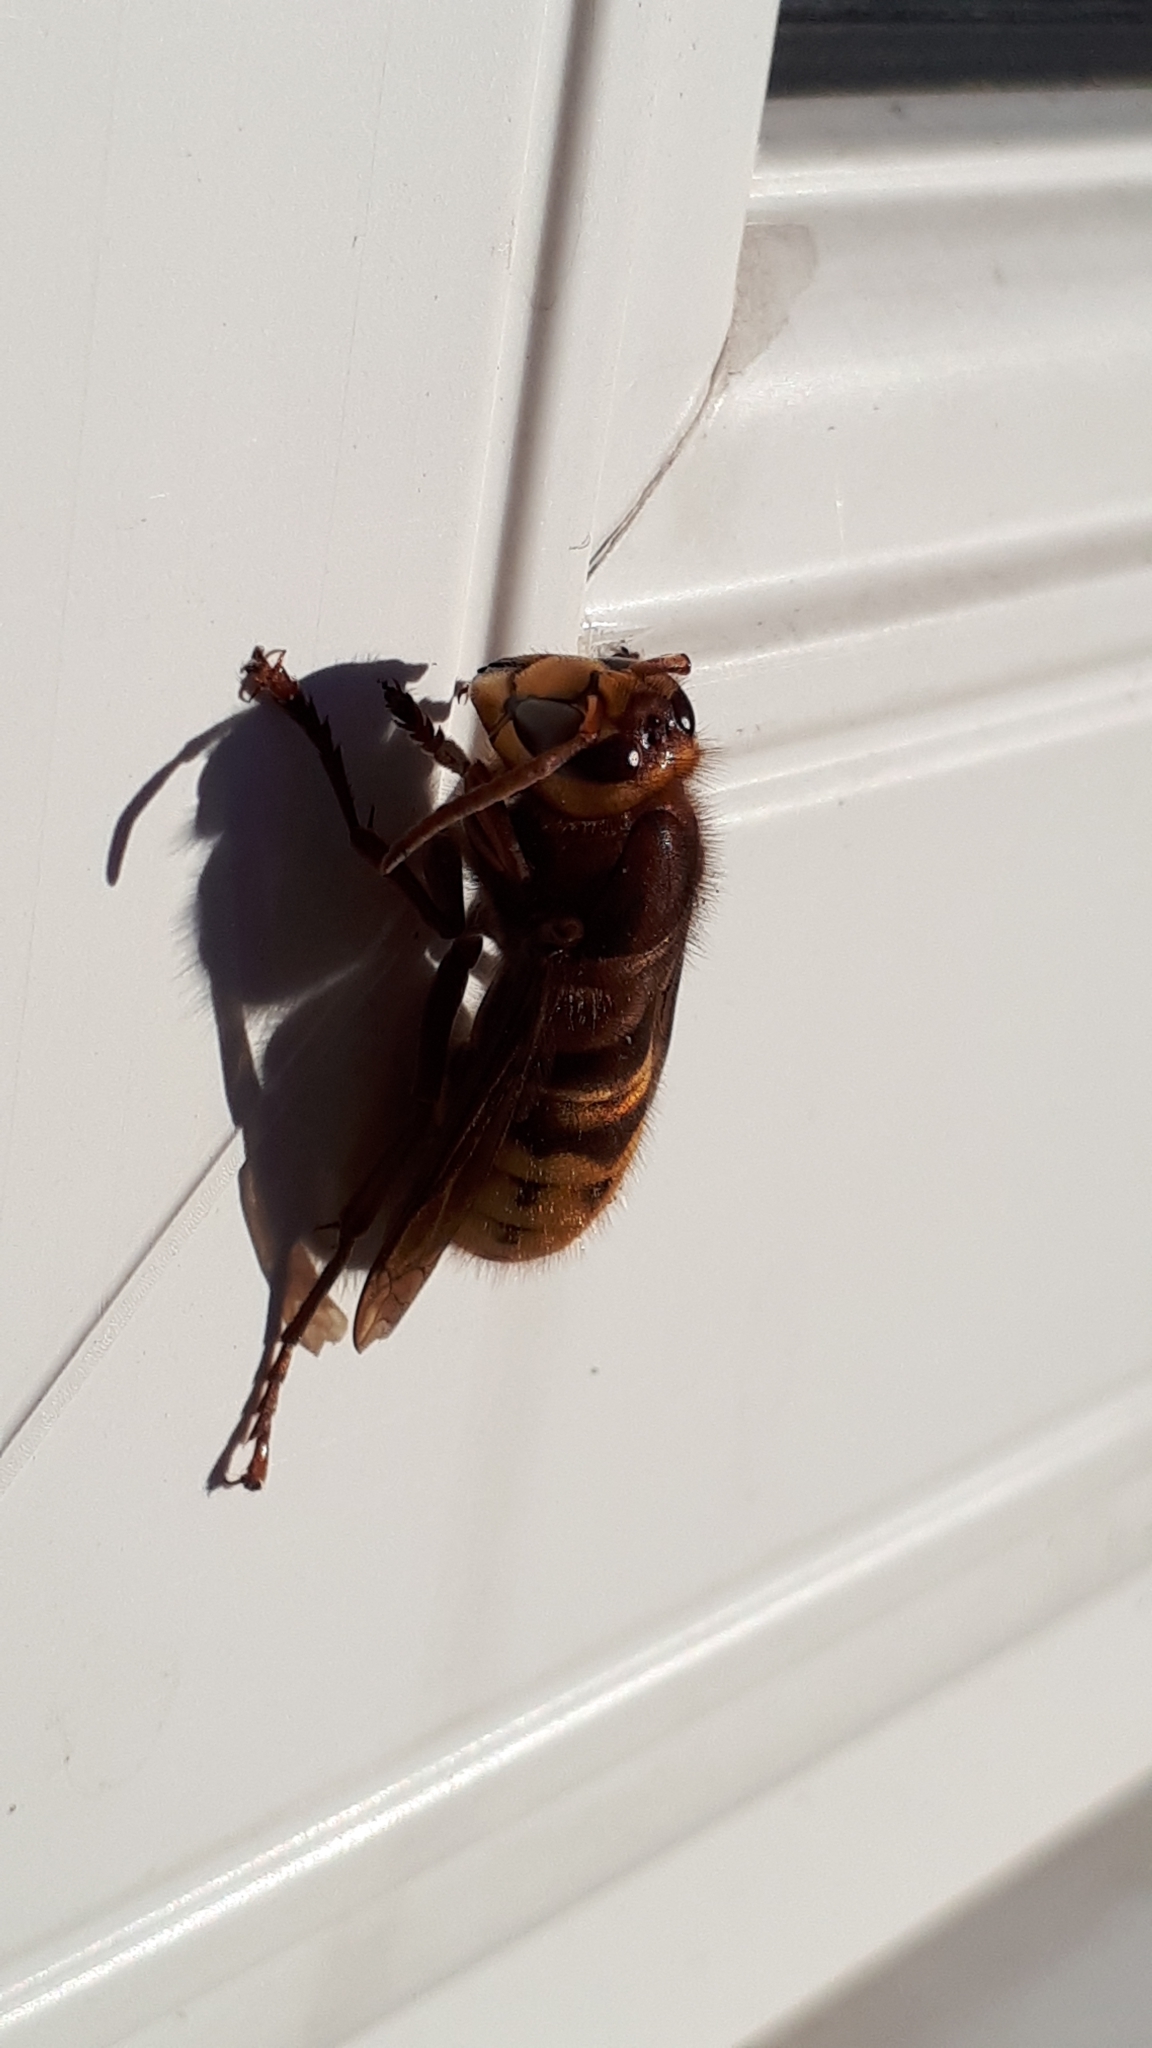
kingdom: Animalia
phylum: Arthropoda
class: Insecta
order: Hymenoptera
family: Vespidae
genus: Vespa
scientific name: Vespa crabro
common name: Hornet
